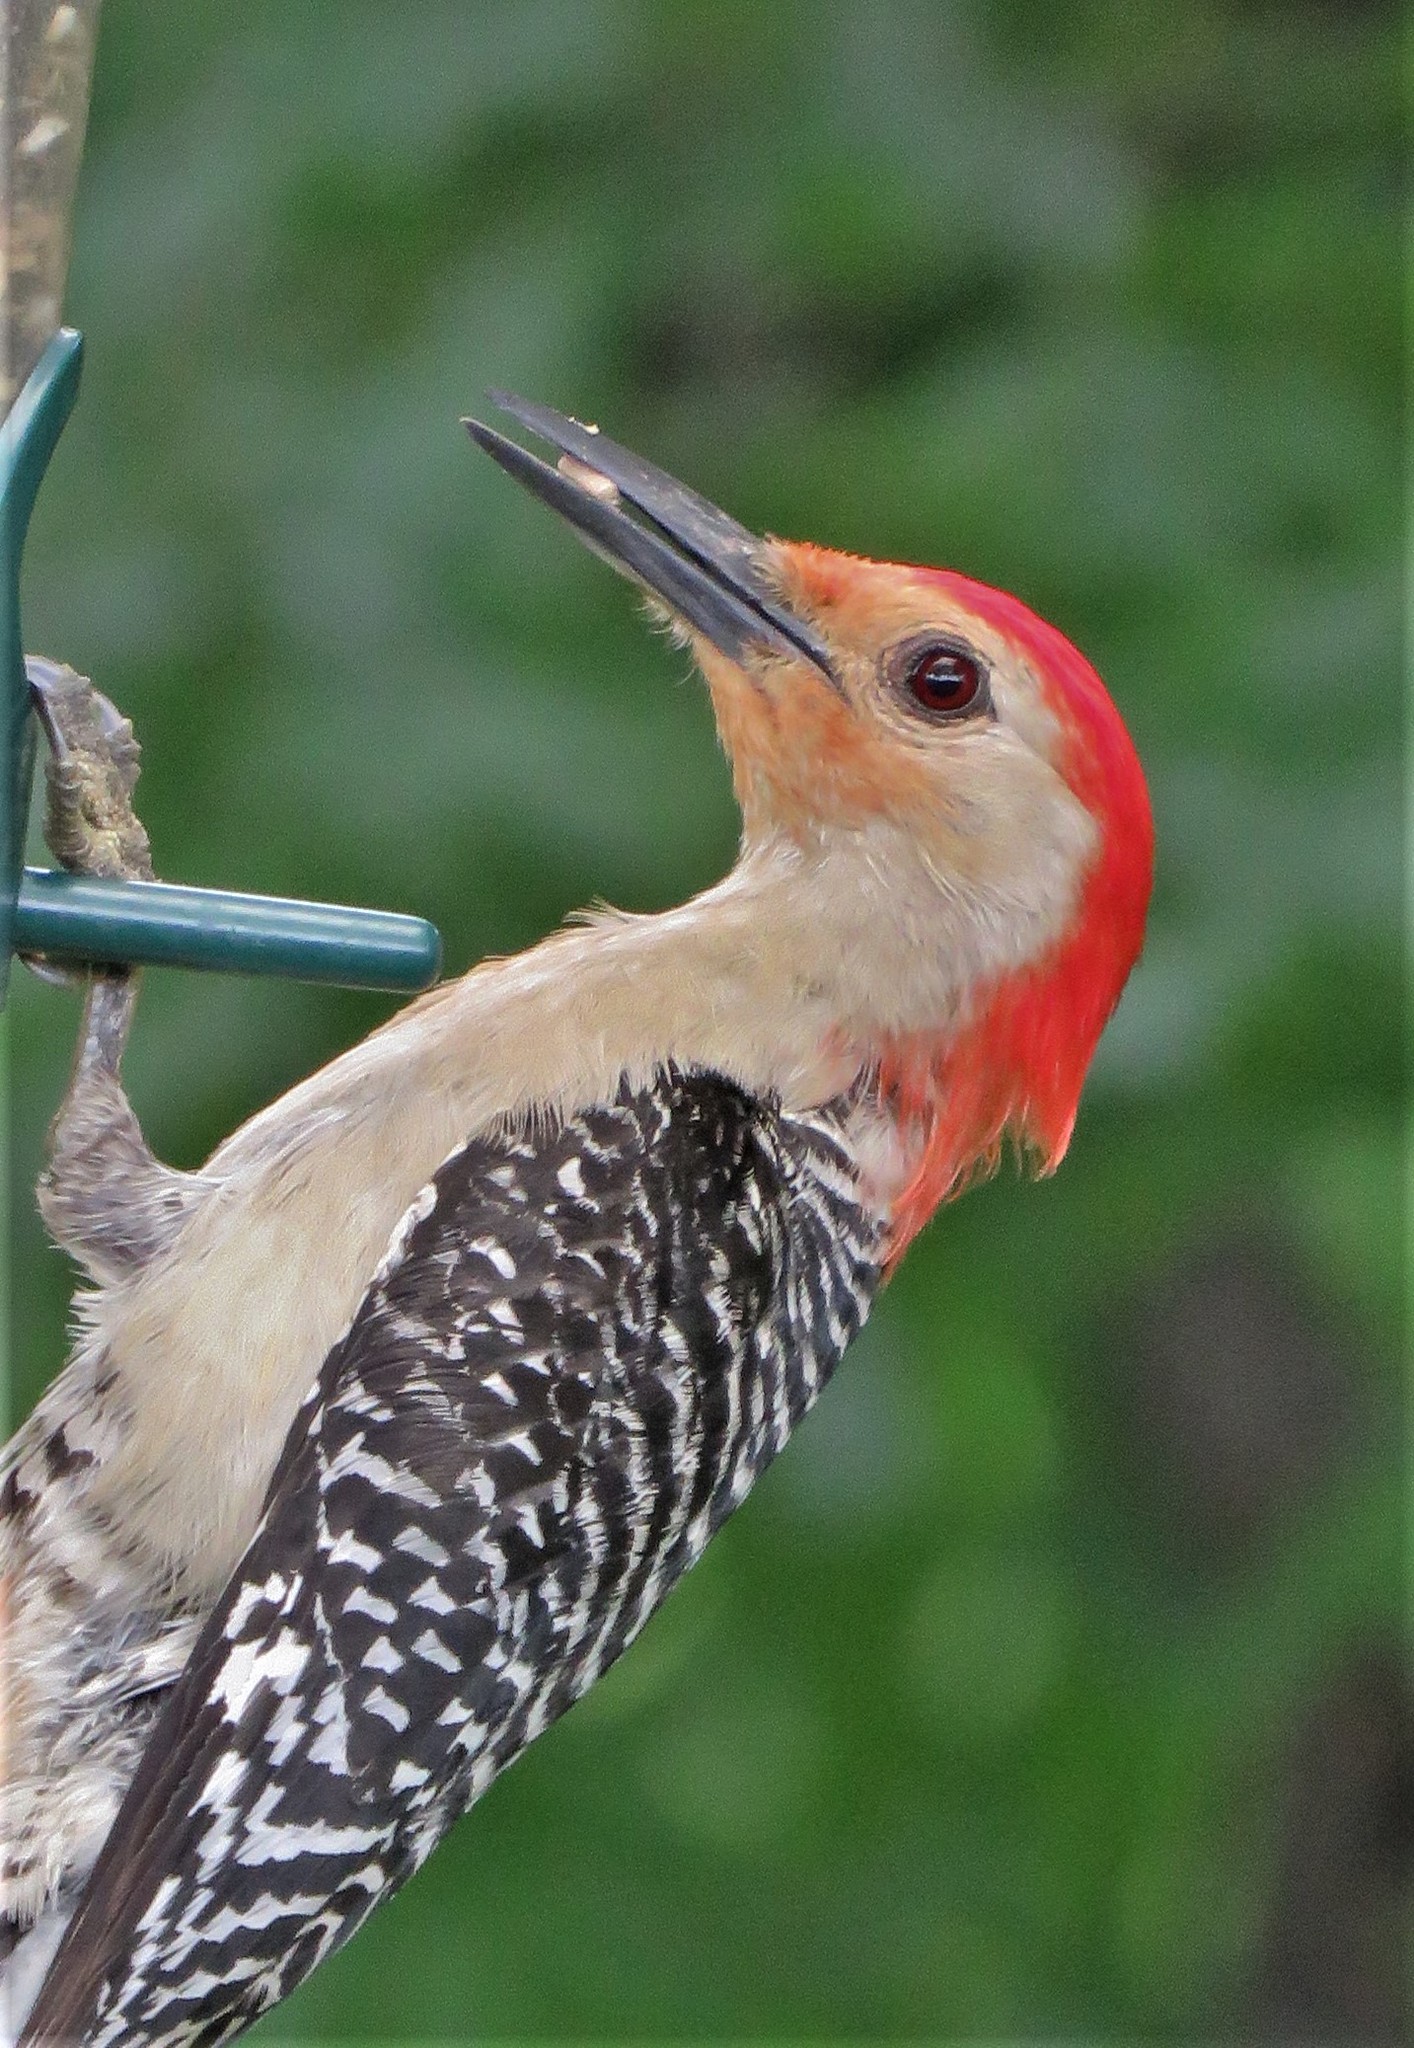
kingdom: Animalia
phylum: Chordata
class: Aves
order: Piciformes
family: Picidae
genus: Melanerpes
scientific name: Melanerpes carolinus
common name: Red-bellied woodpecker
